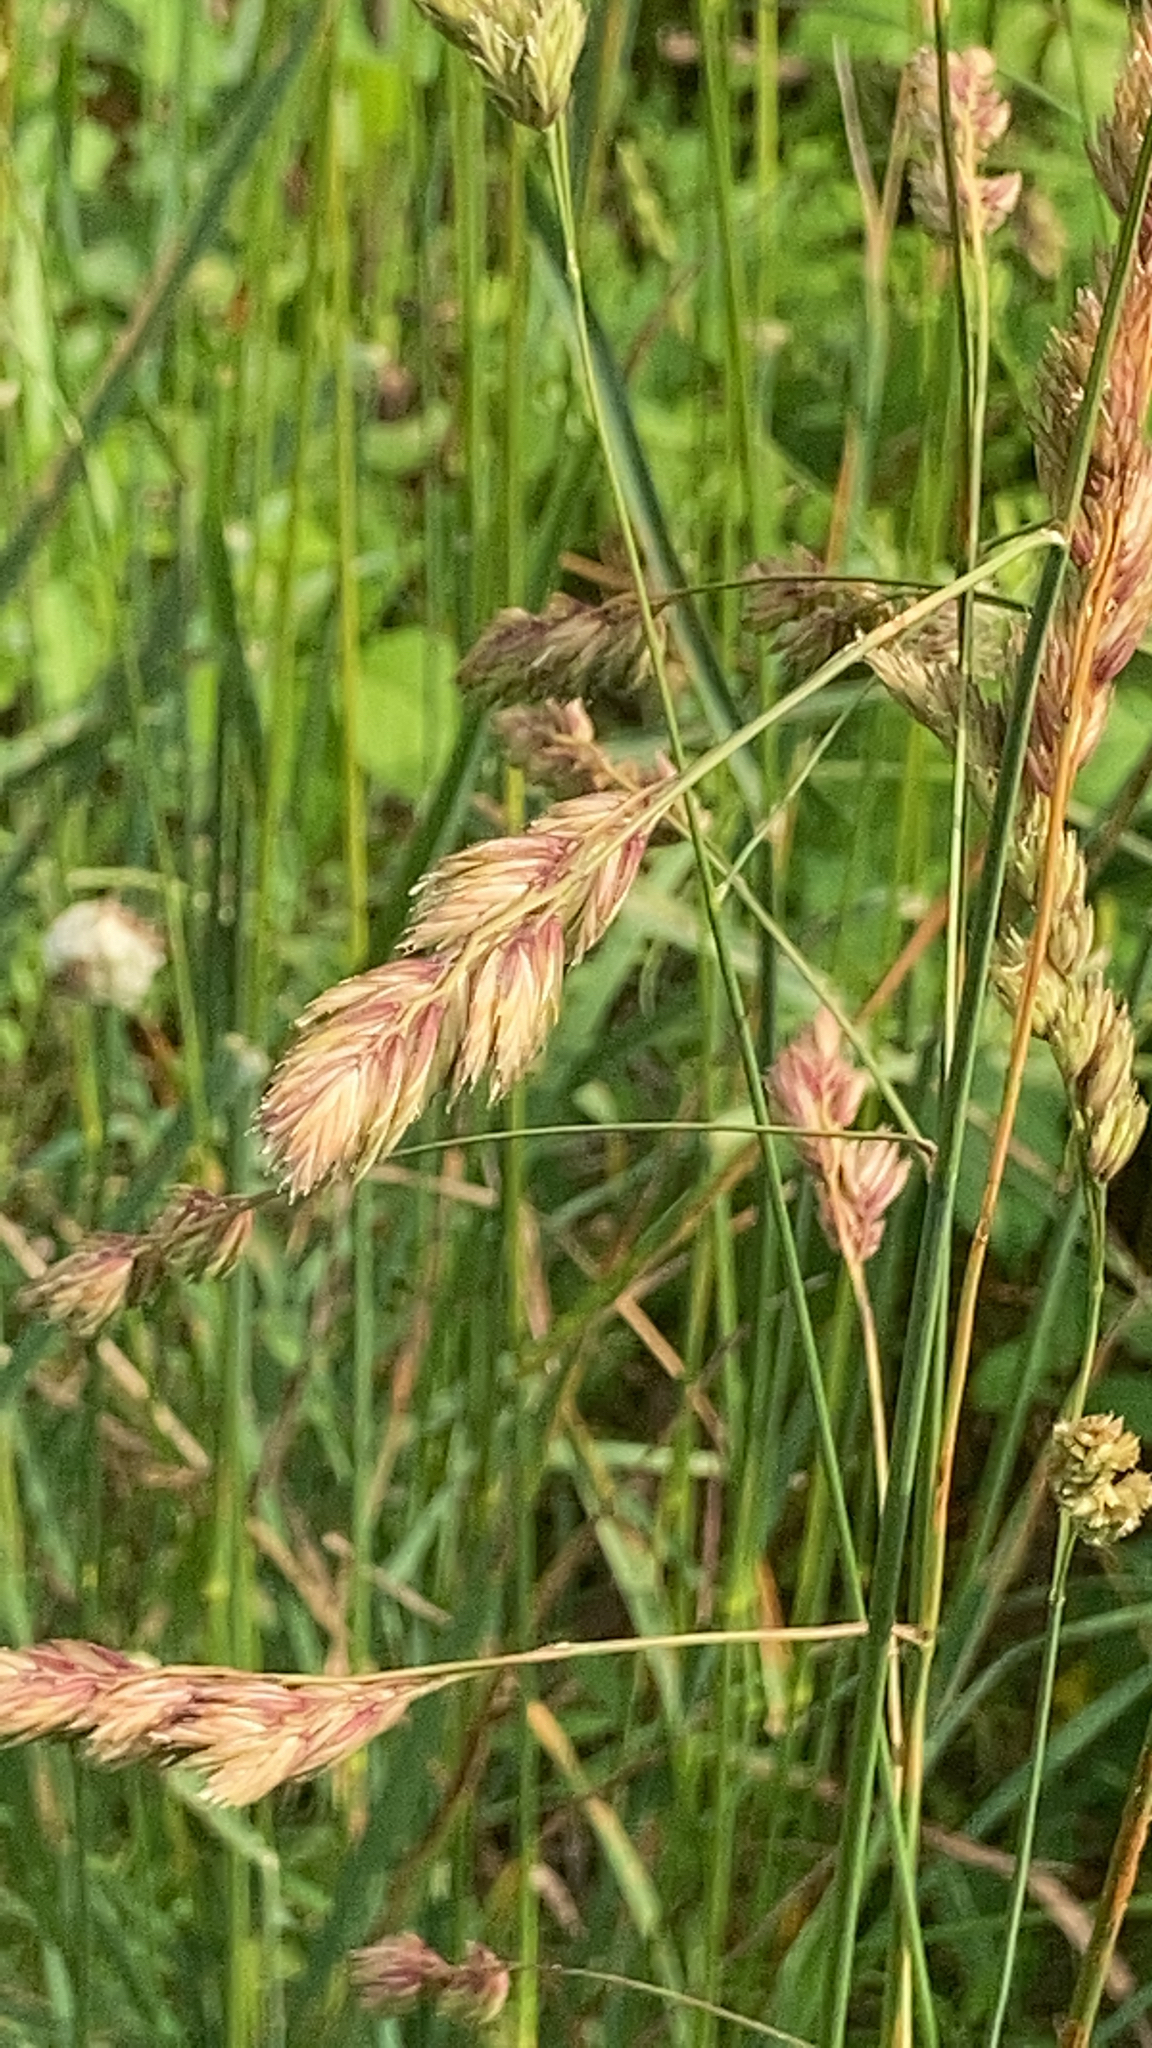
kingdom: Plantae
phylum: Tracheophyta
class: Liliopsida
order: Poales
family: Poaceae
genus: Dactylis
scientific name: Dactylis glomerata
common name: Orchardgrass
